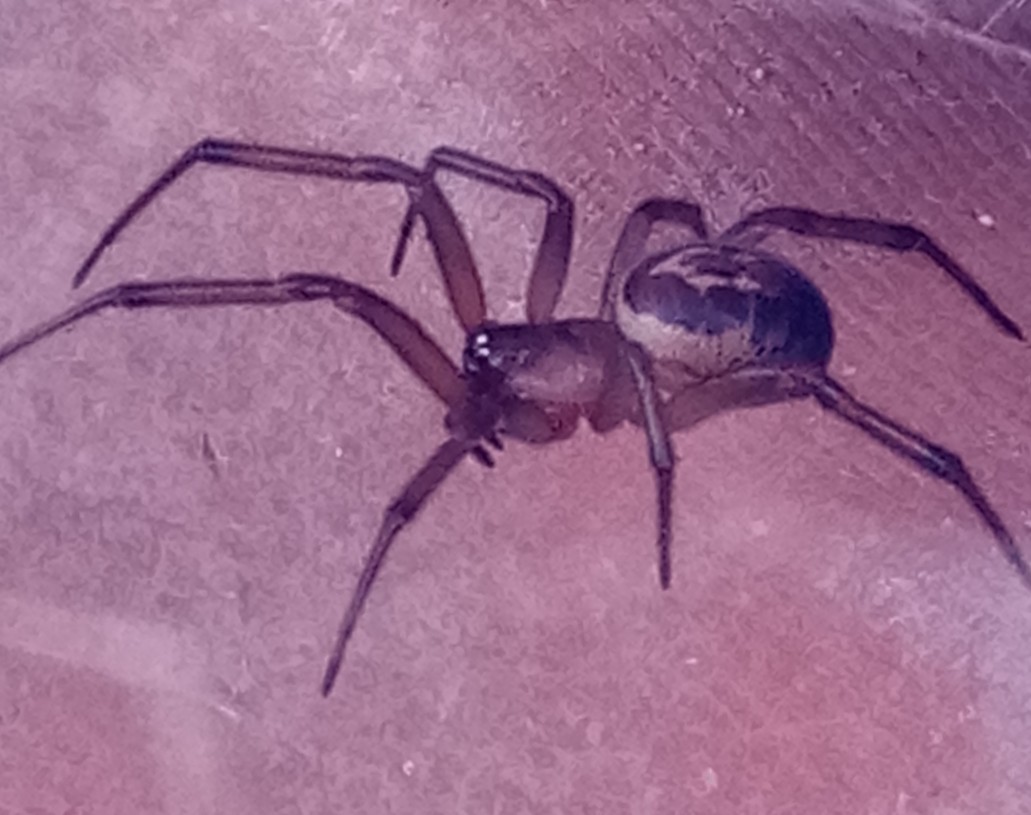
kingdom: Animalia
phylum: Arthropoda
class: Arachnida
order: Araneae
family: Theridiidae
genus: Steatoda
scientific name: Steatoda nobilis
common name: Cobweb weaver
